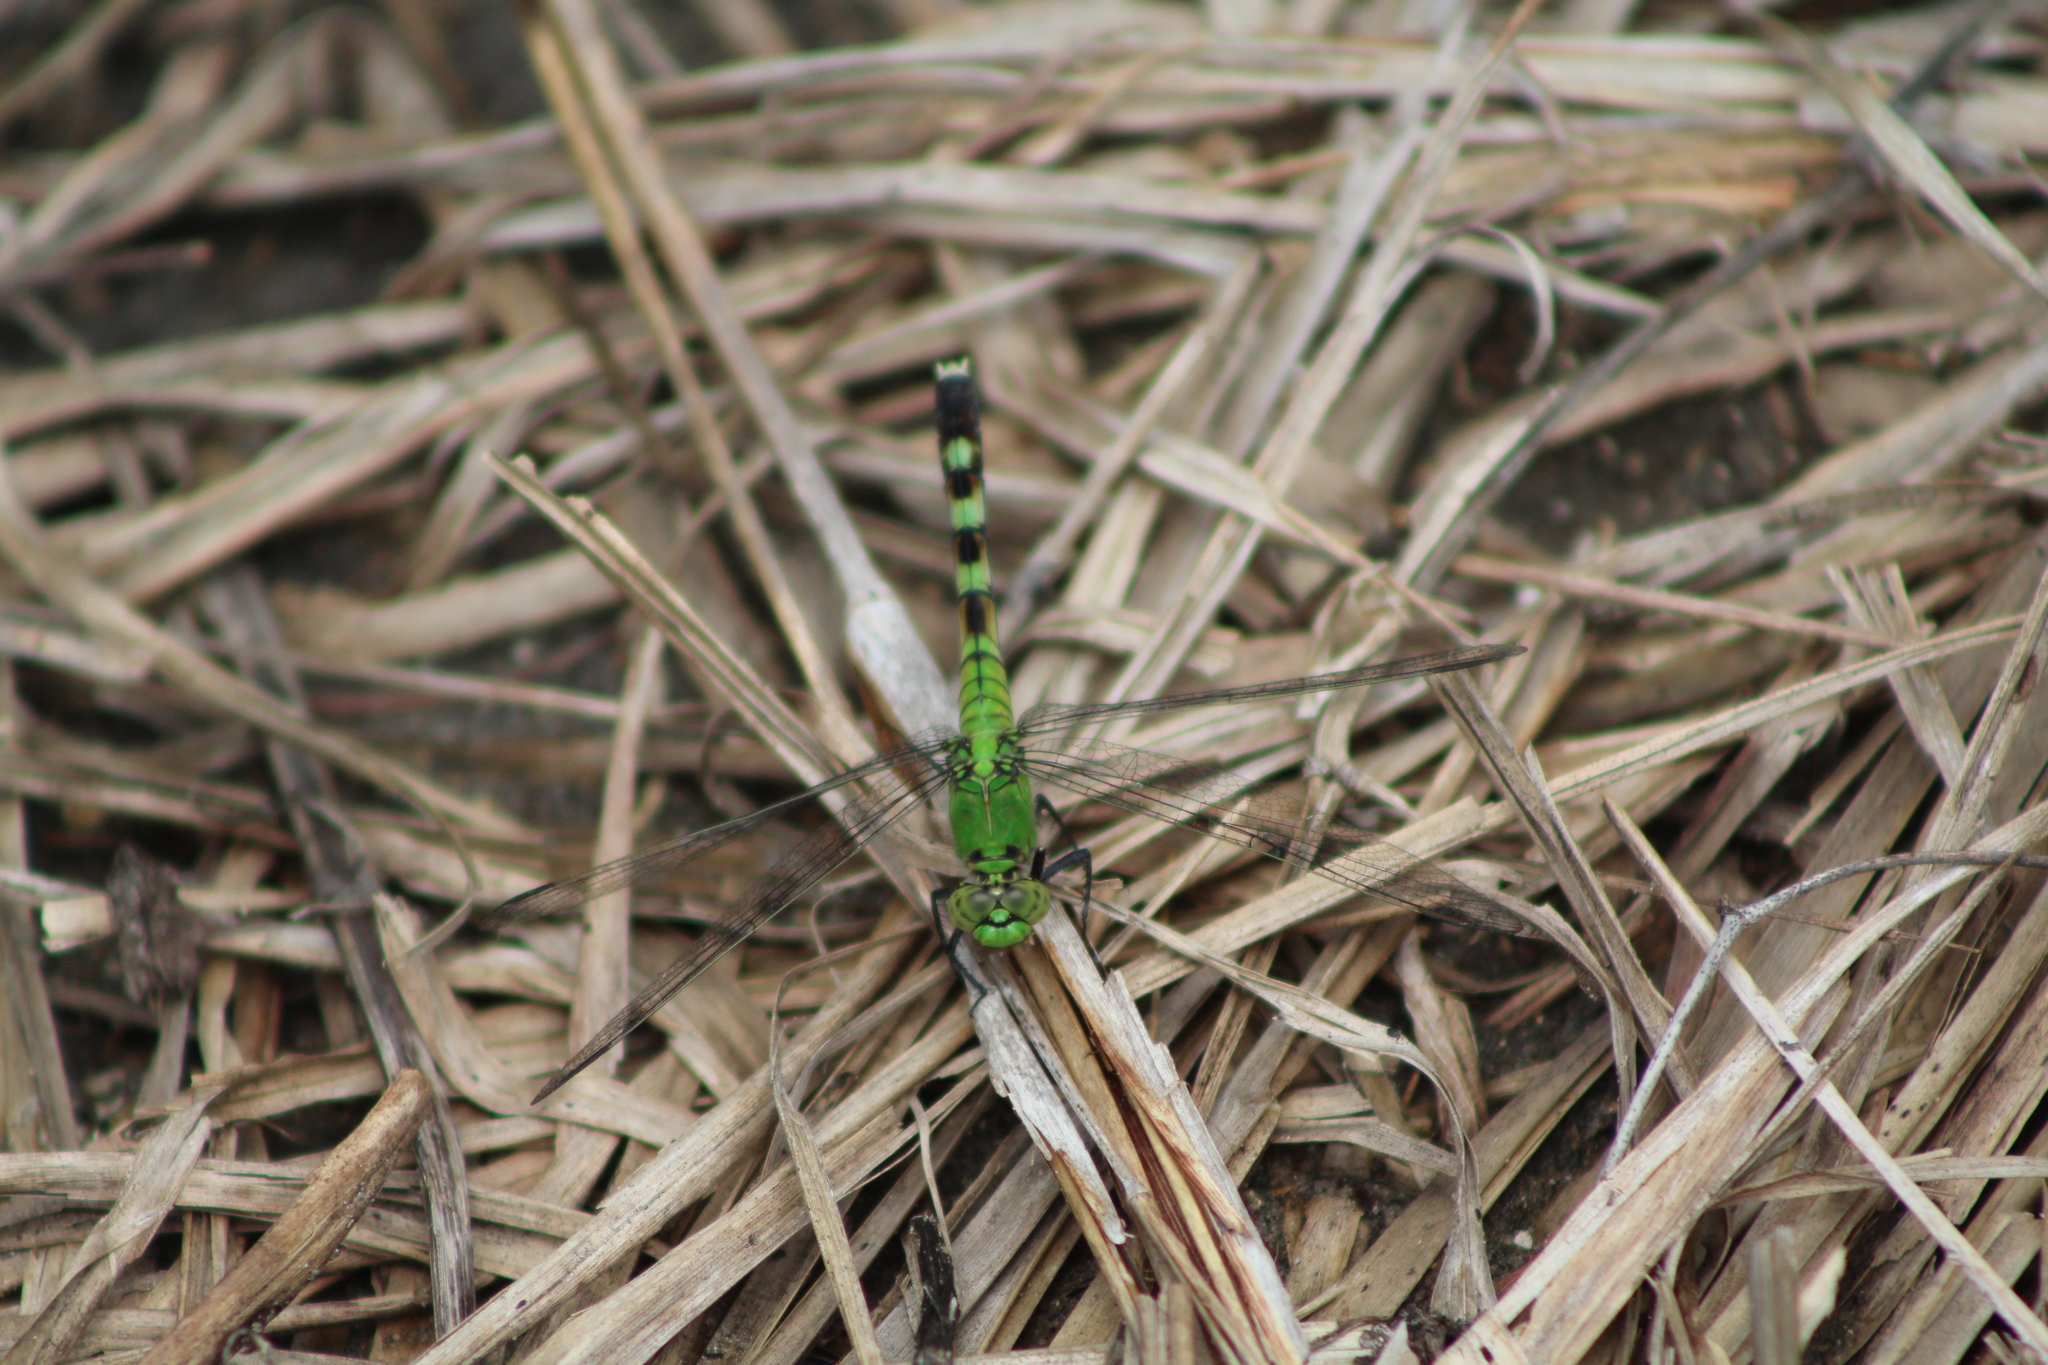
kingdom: Animalia
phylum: Arthropoda
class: Insecta
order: Odonata
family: Libellulidae
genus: Erythemis
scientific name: Erythemis simplicicollis
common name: Eastern pondhawk
